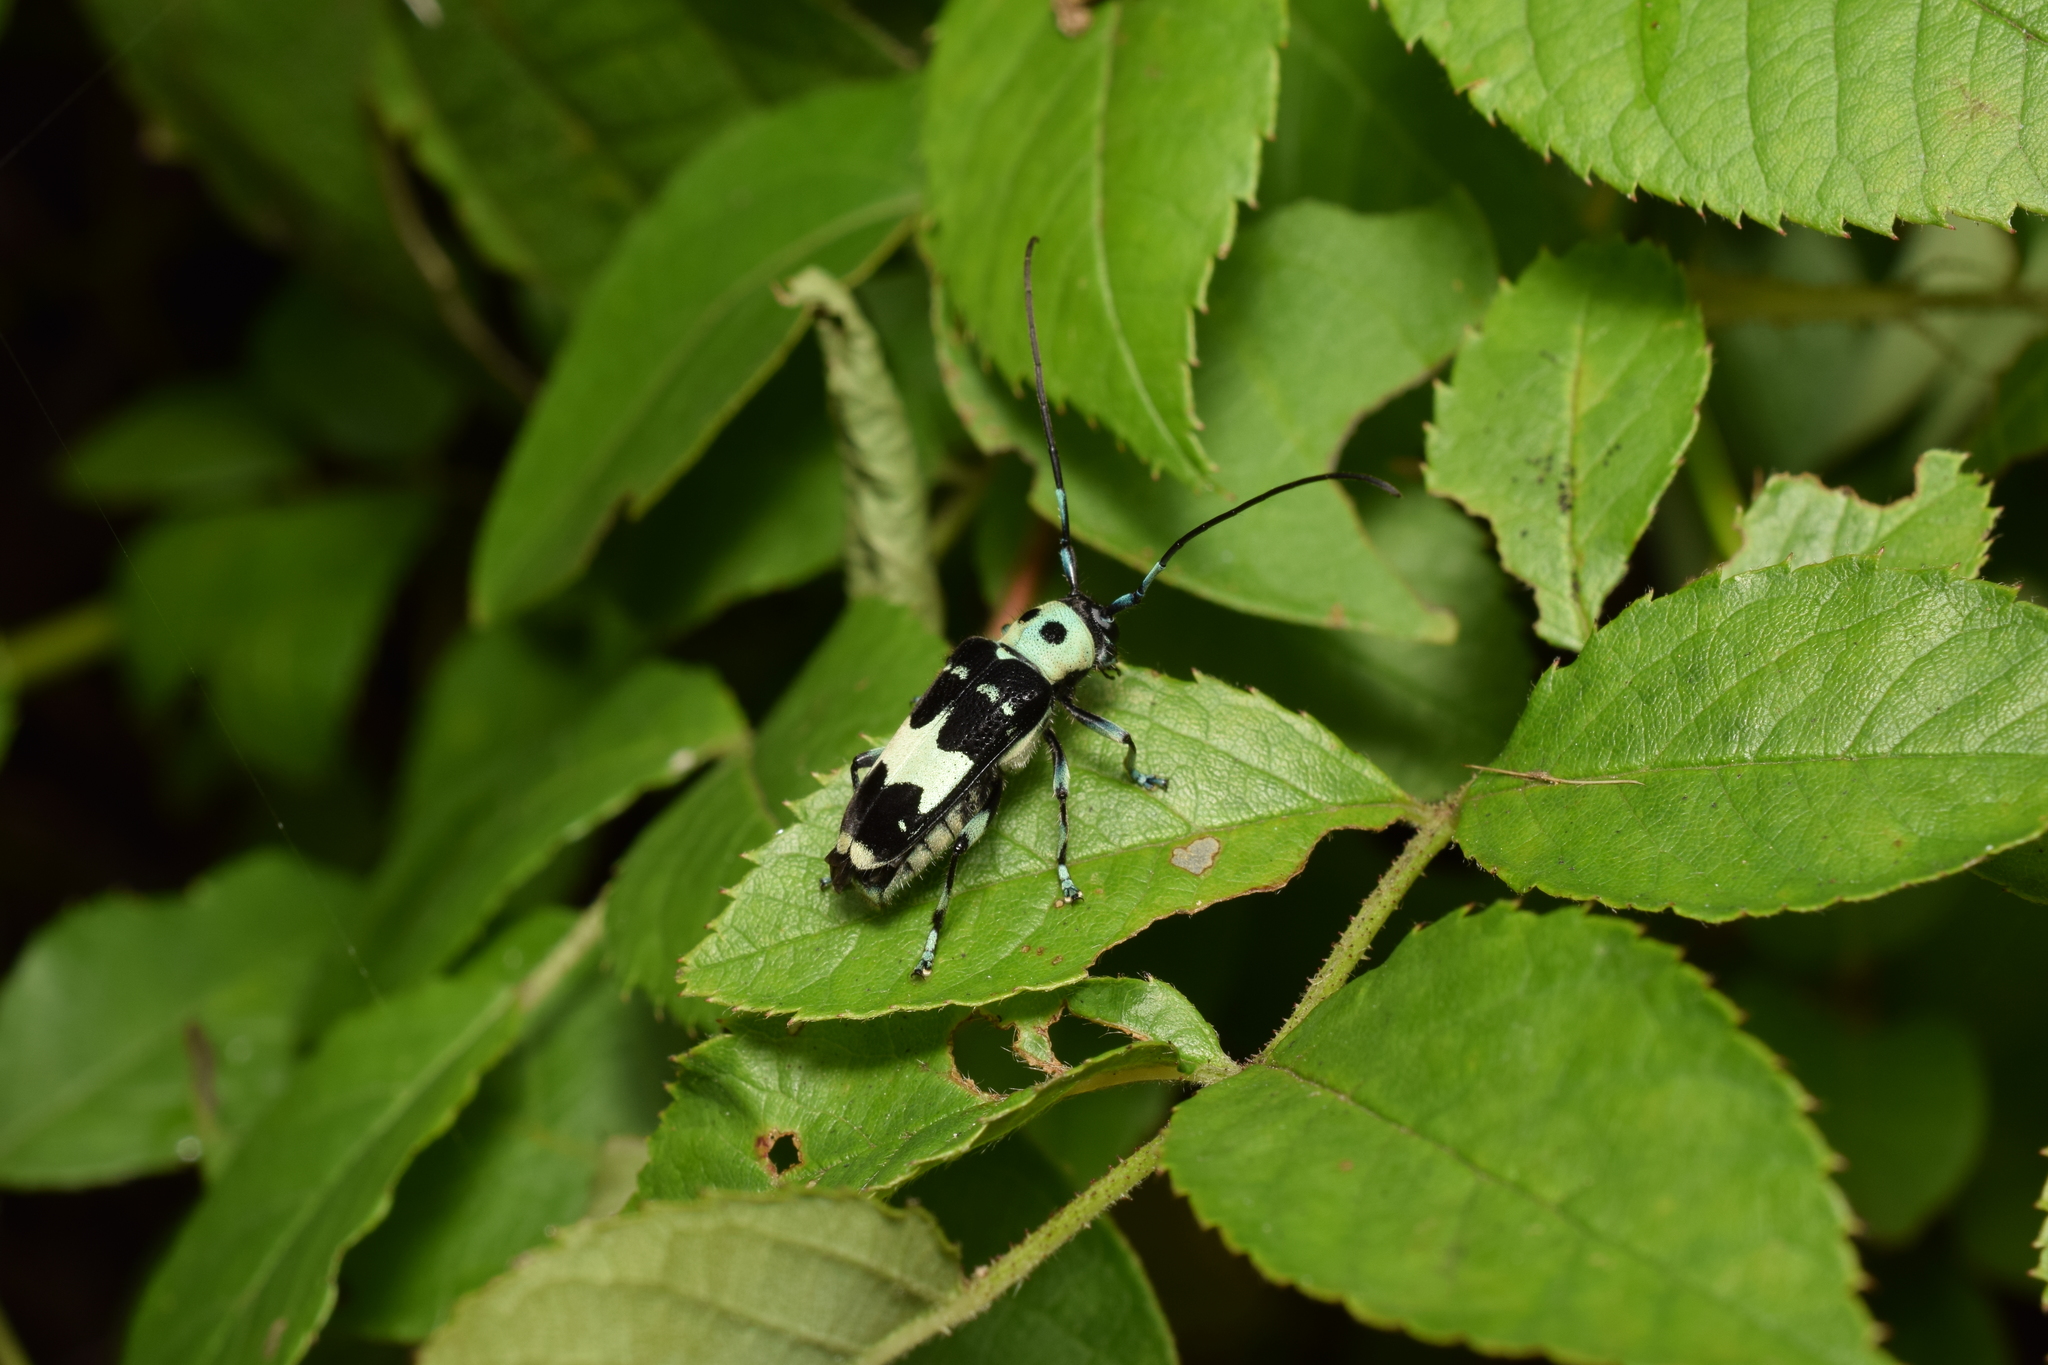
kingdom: Animalia
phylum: Arthropoda
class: Insecta
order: Coleoptera
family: Cerambycidae
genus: Paraglenea
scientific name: Paraglenea fortunei
